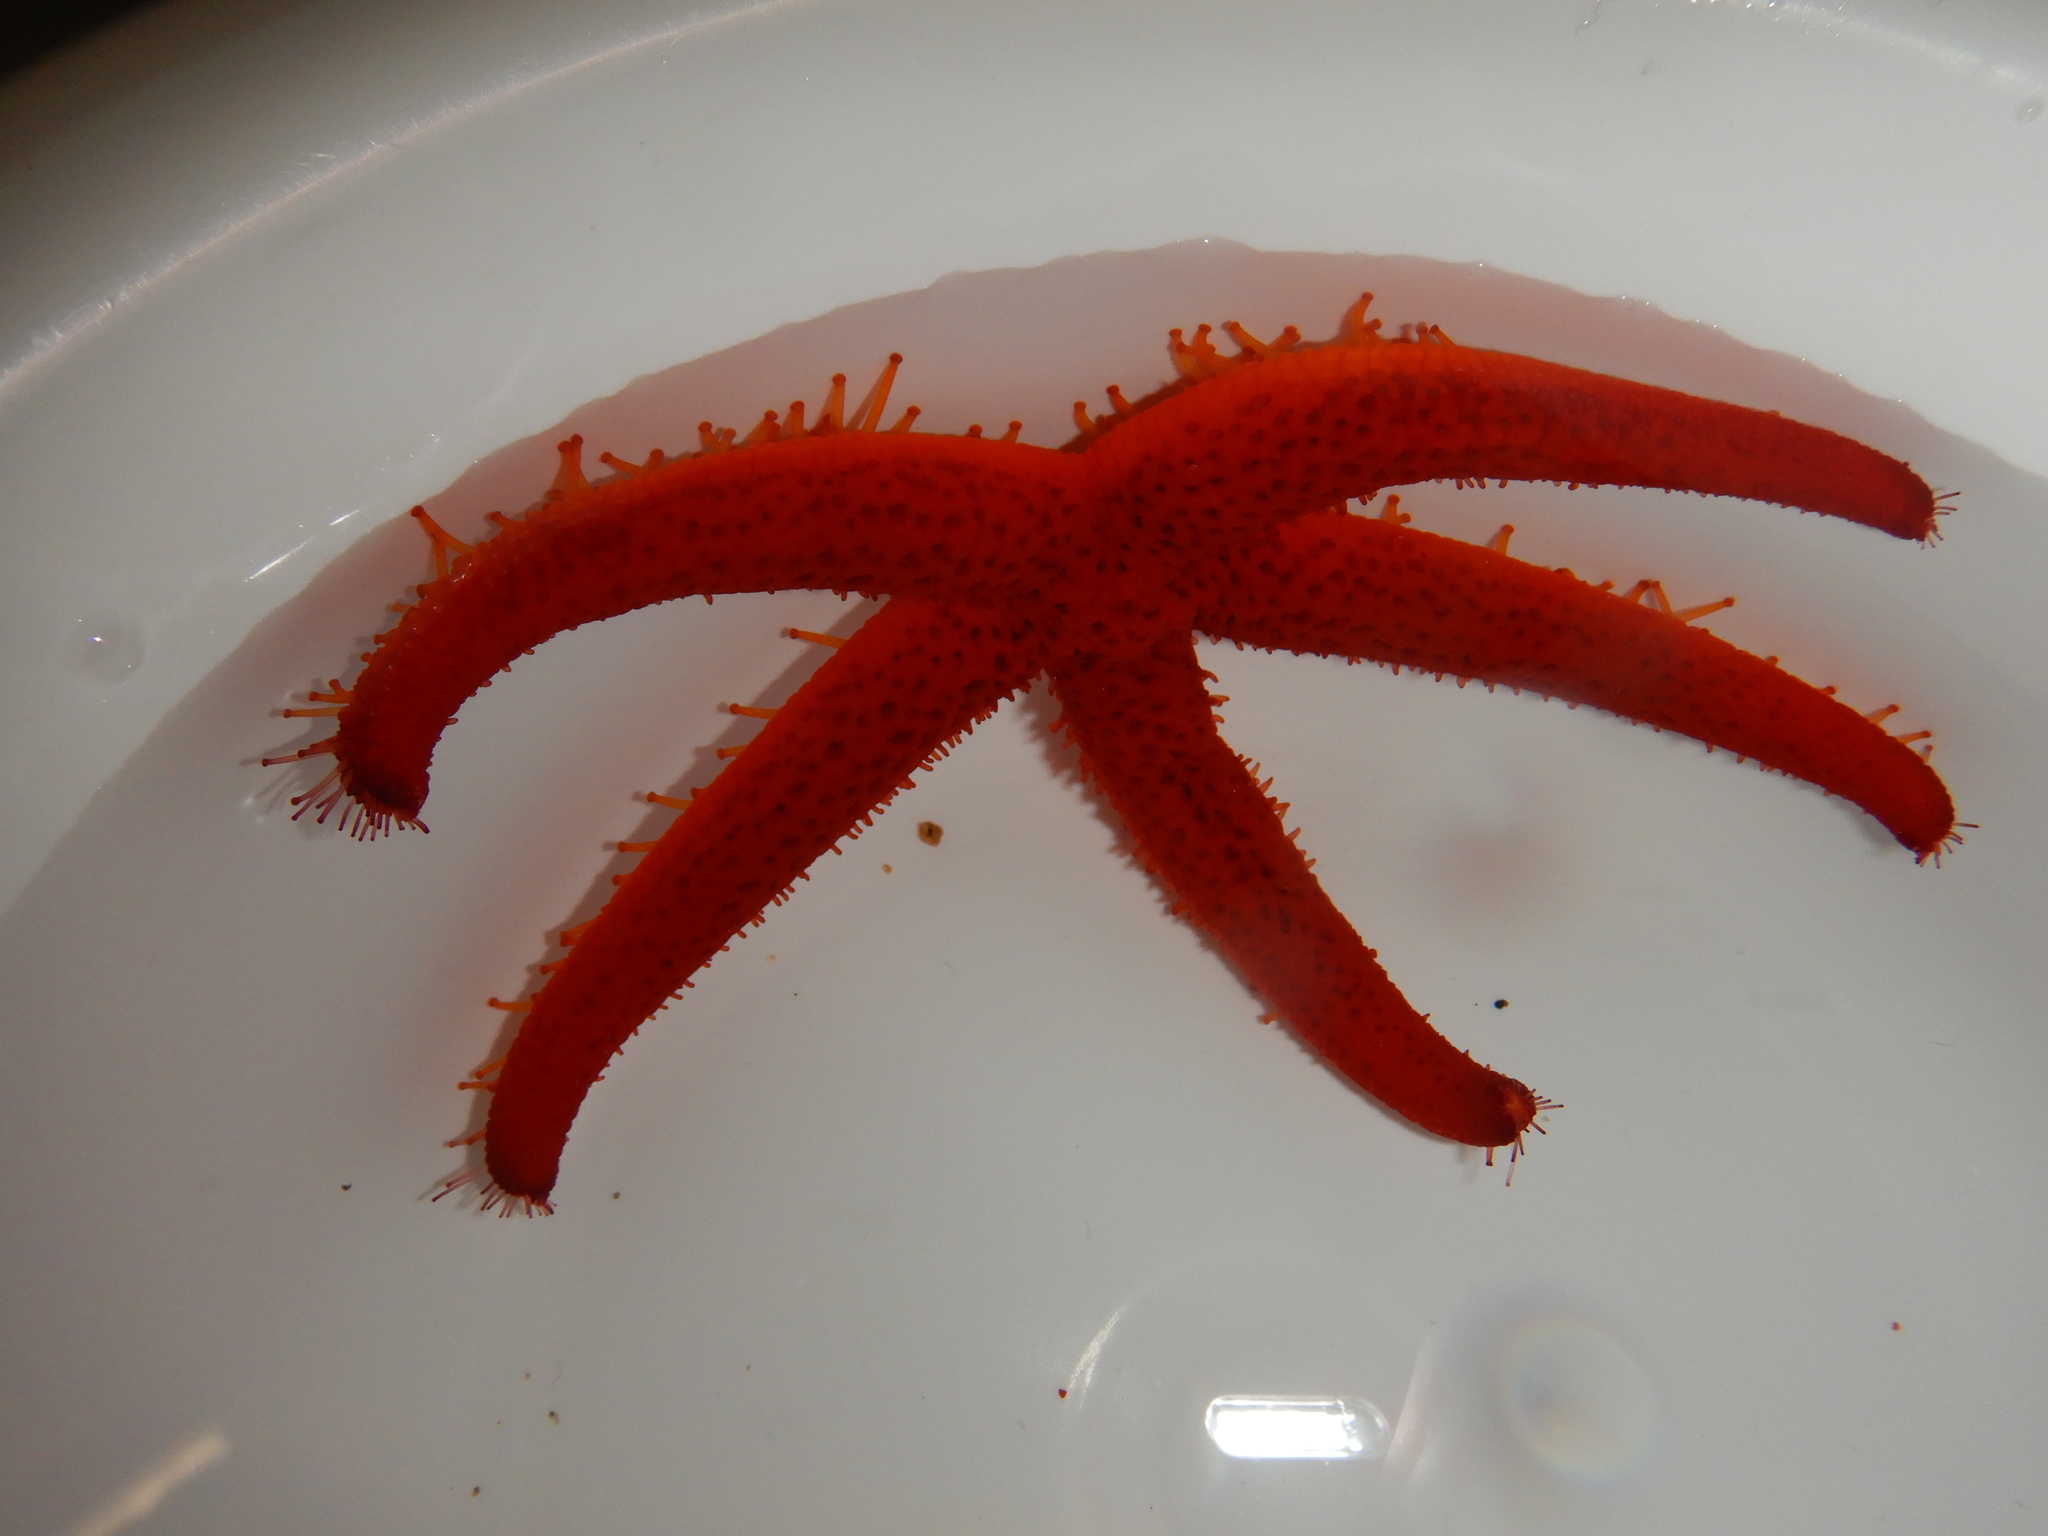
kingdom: Animalia
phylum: Echinodermata
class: Asteroidea
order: Spinulosida
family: Echinasteridae
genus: Echinaster
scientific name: Echinaster sepositus
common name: Red starfish
